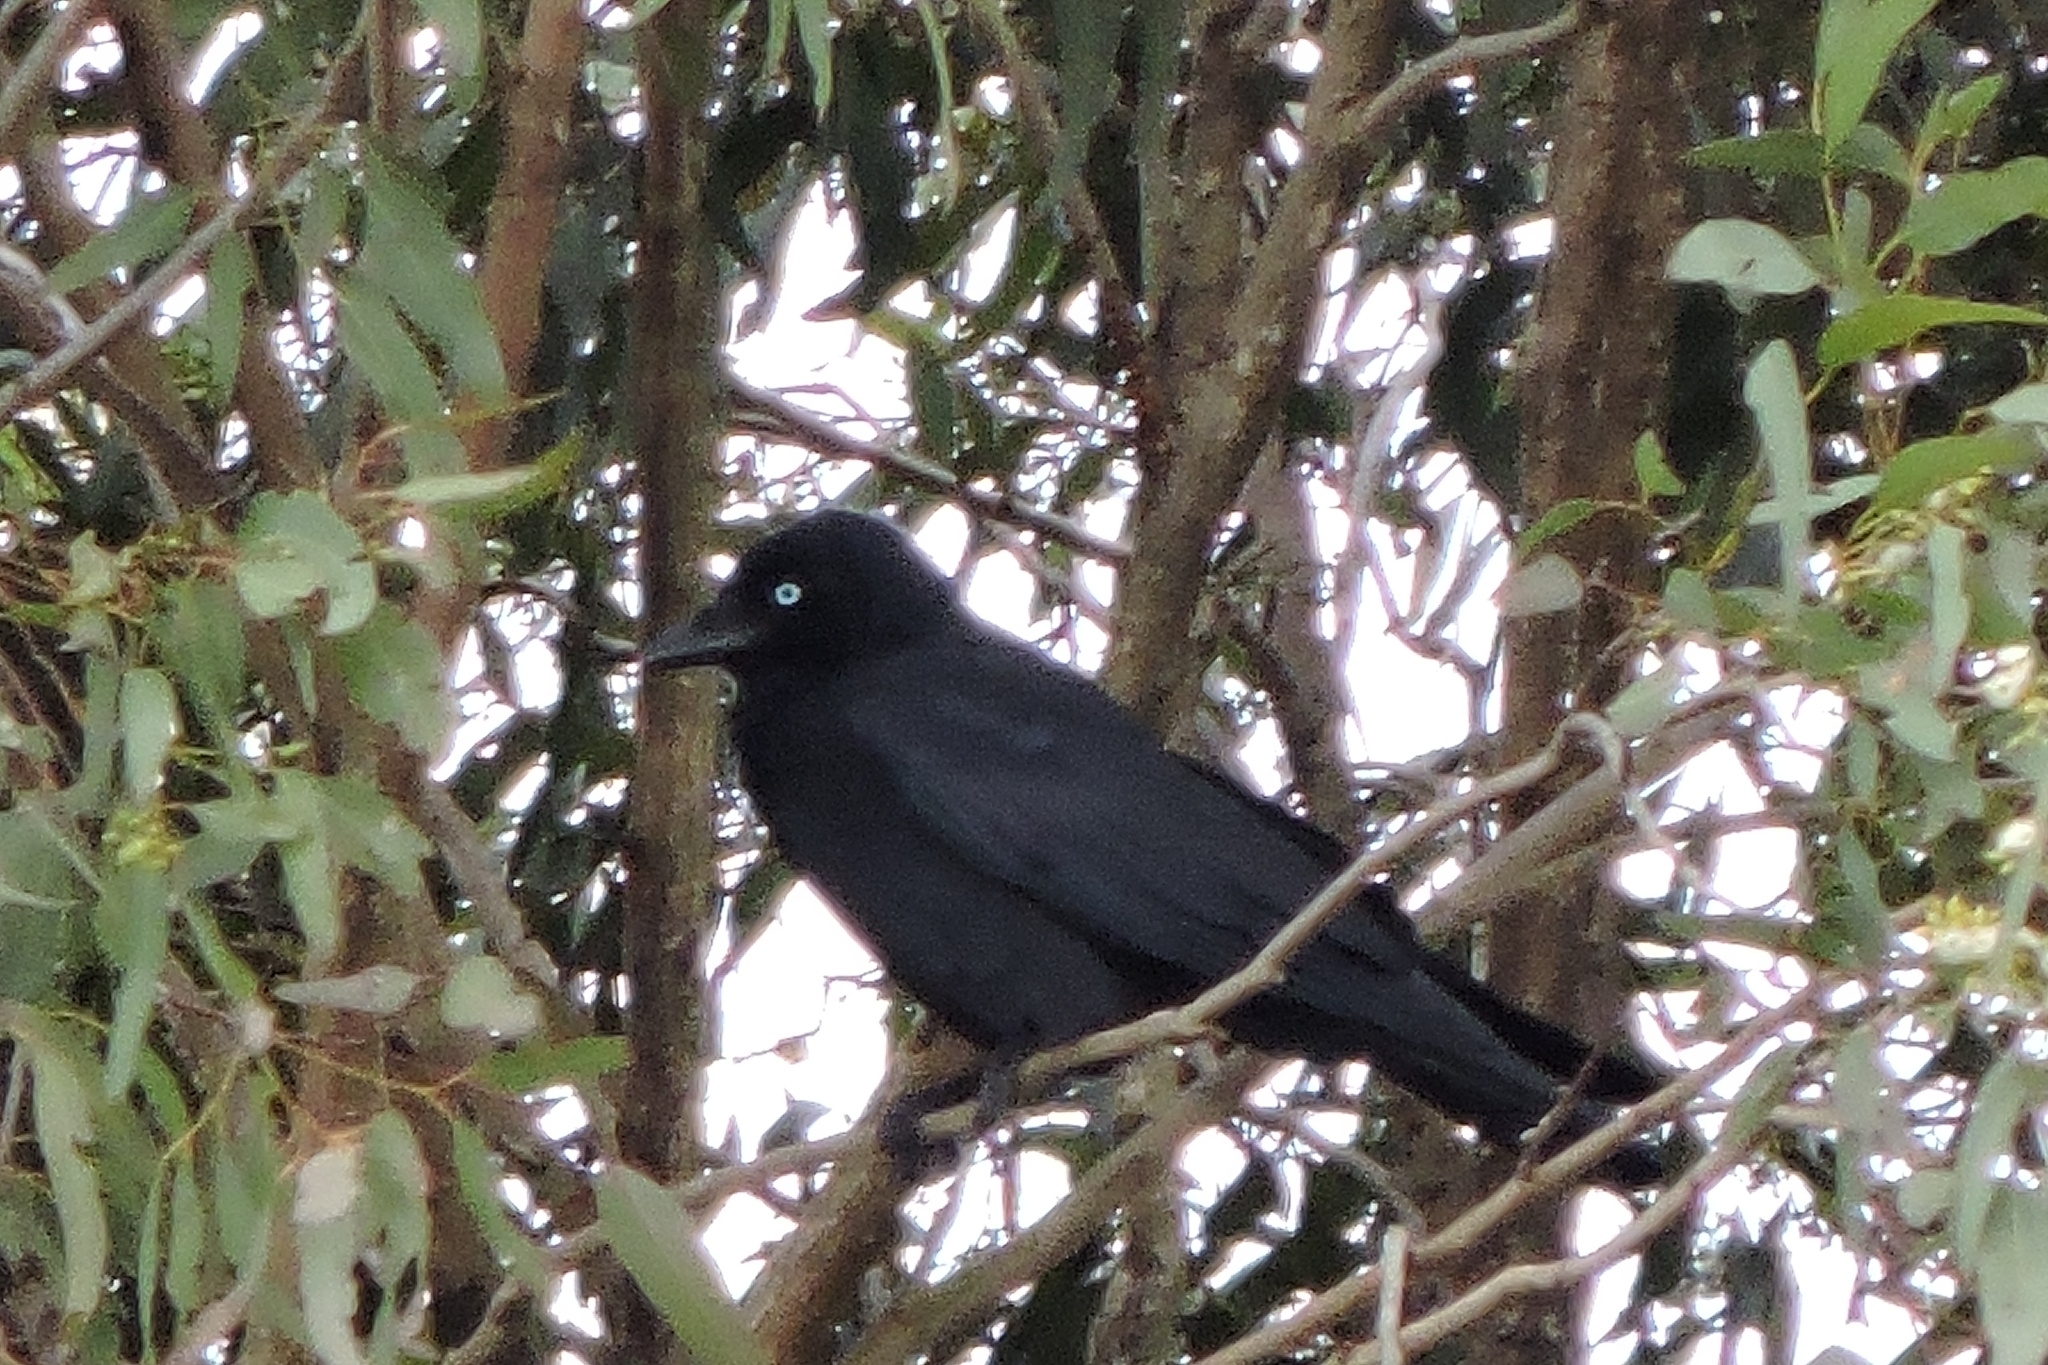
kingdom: Animalia
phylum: Chordata
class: Aves
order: Passeriformes
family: Corvidae
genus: Corvus
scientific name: Corvus orru
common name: Torresian crow
